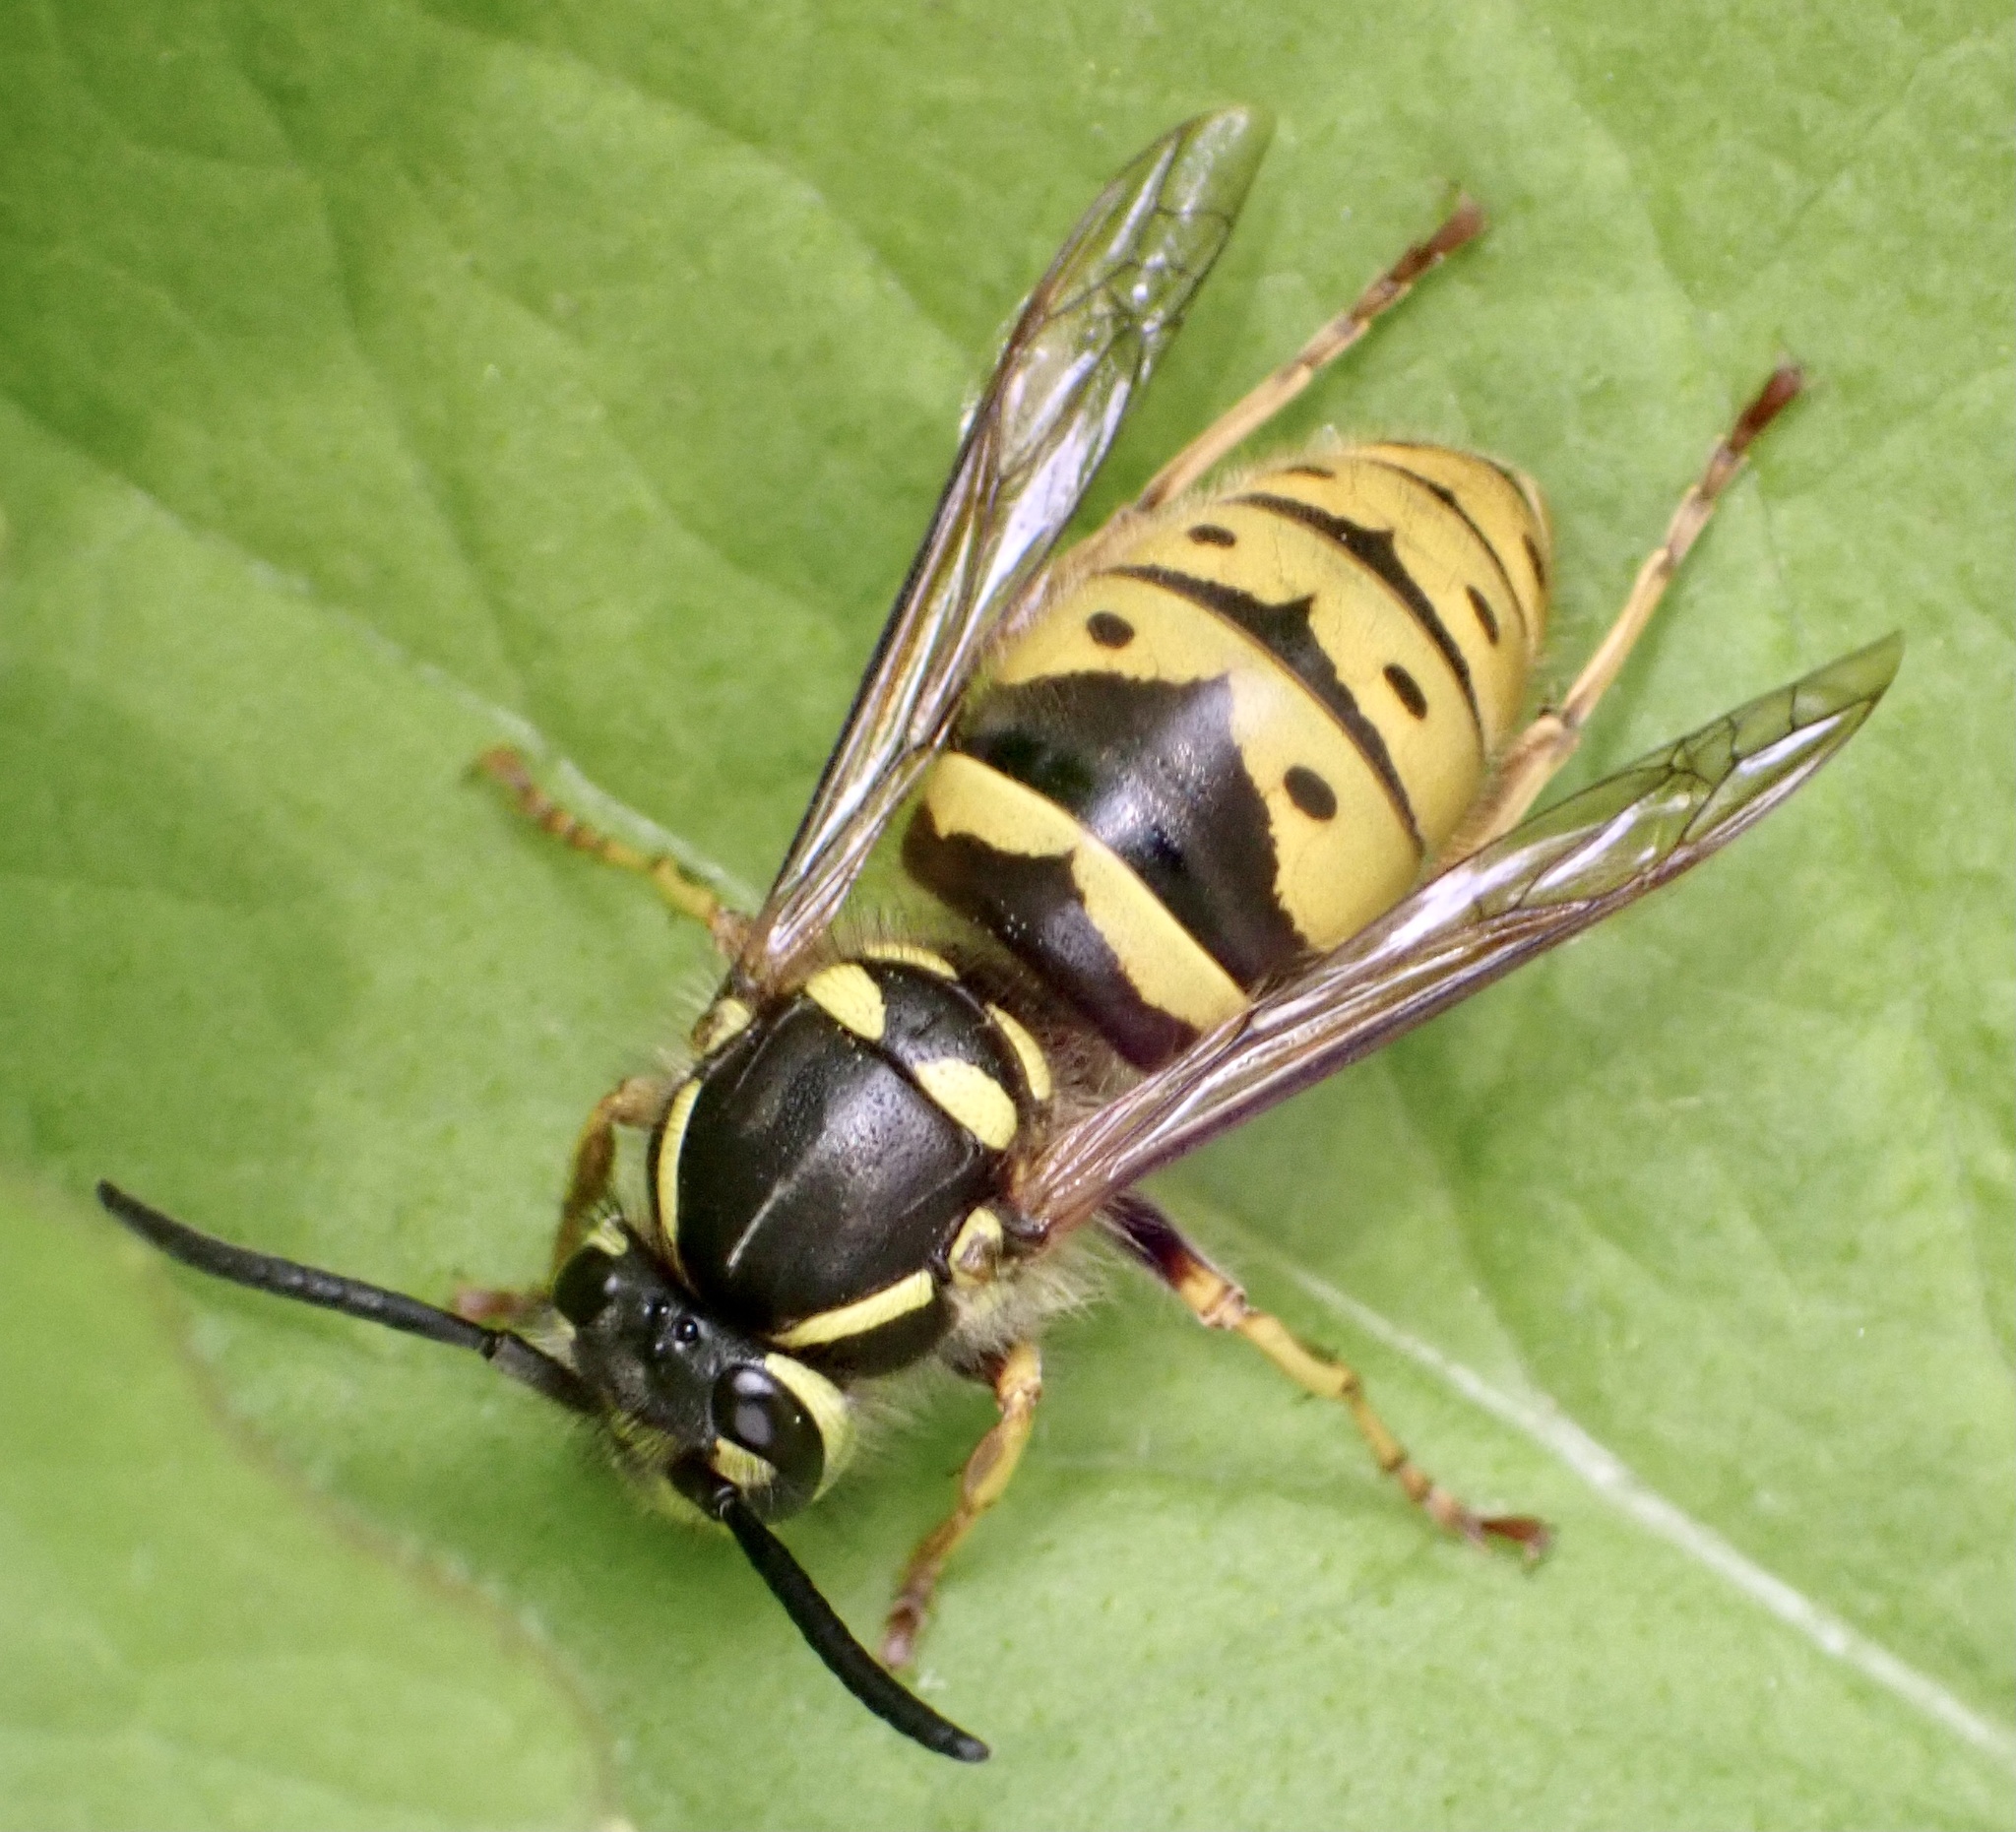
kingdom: Animalia
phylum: Arthropoda
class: Insecta
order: Hymenoptera
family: Vespidae
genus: Vespula
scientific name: Vespula vulgaris
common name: Common wasp
